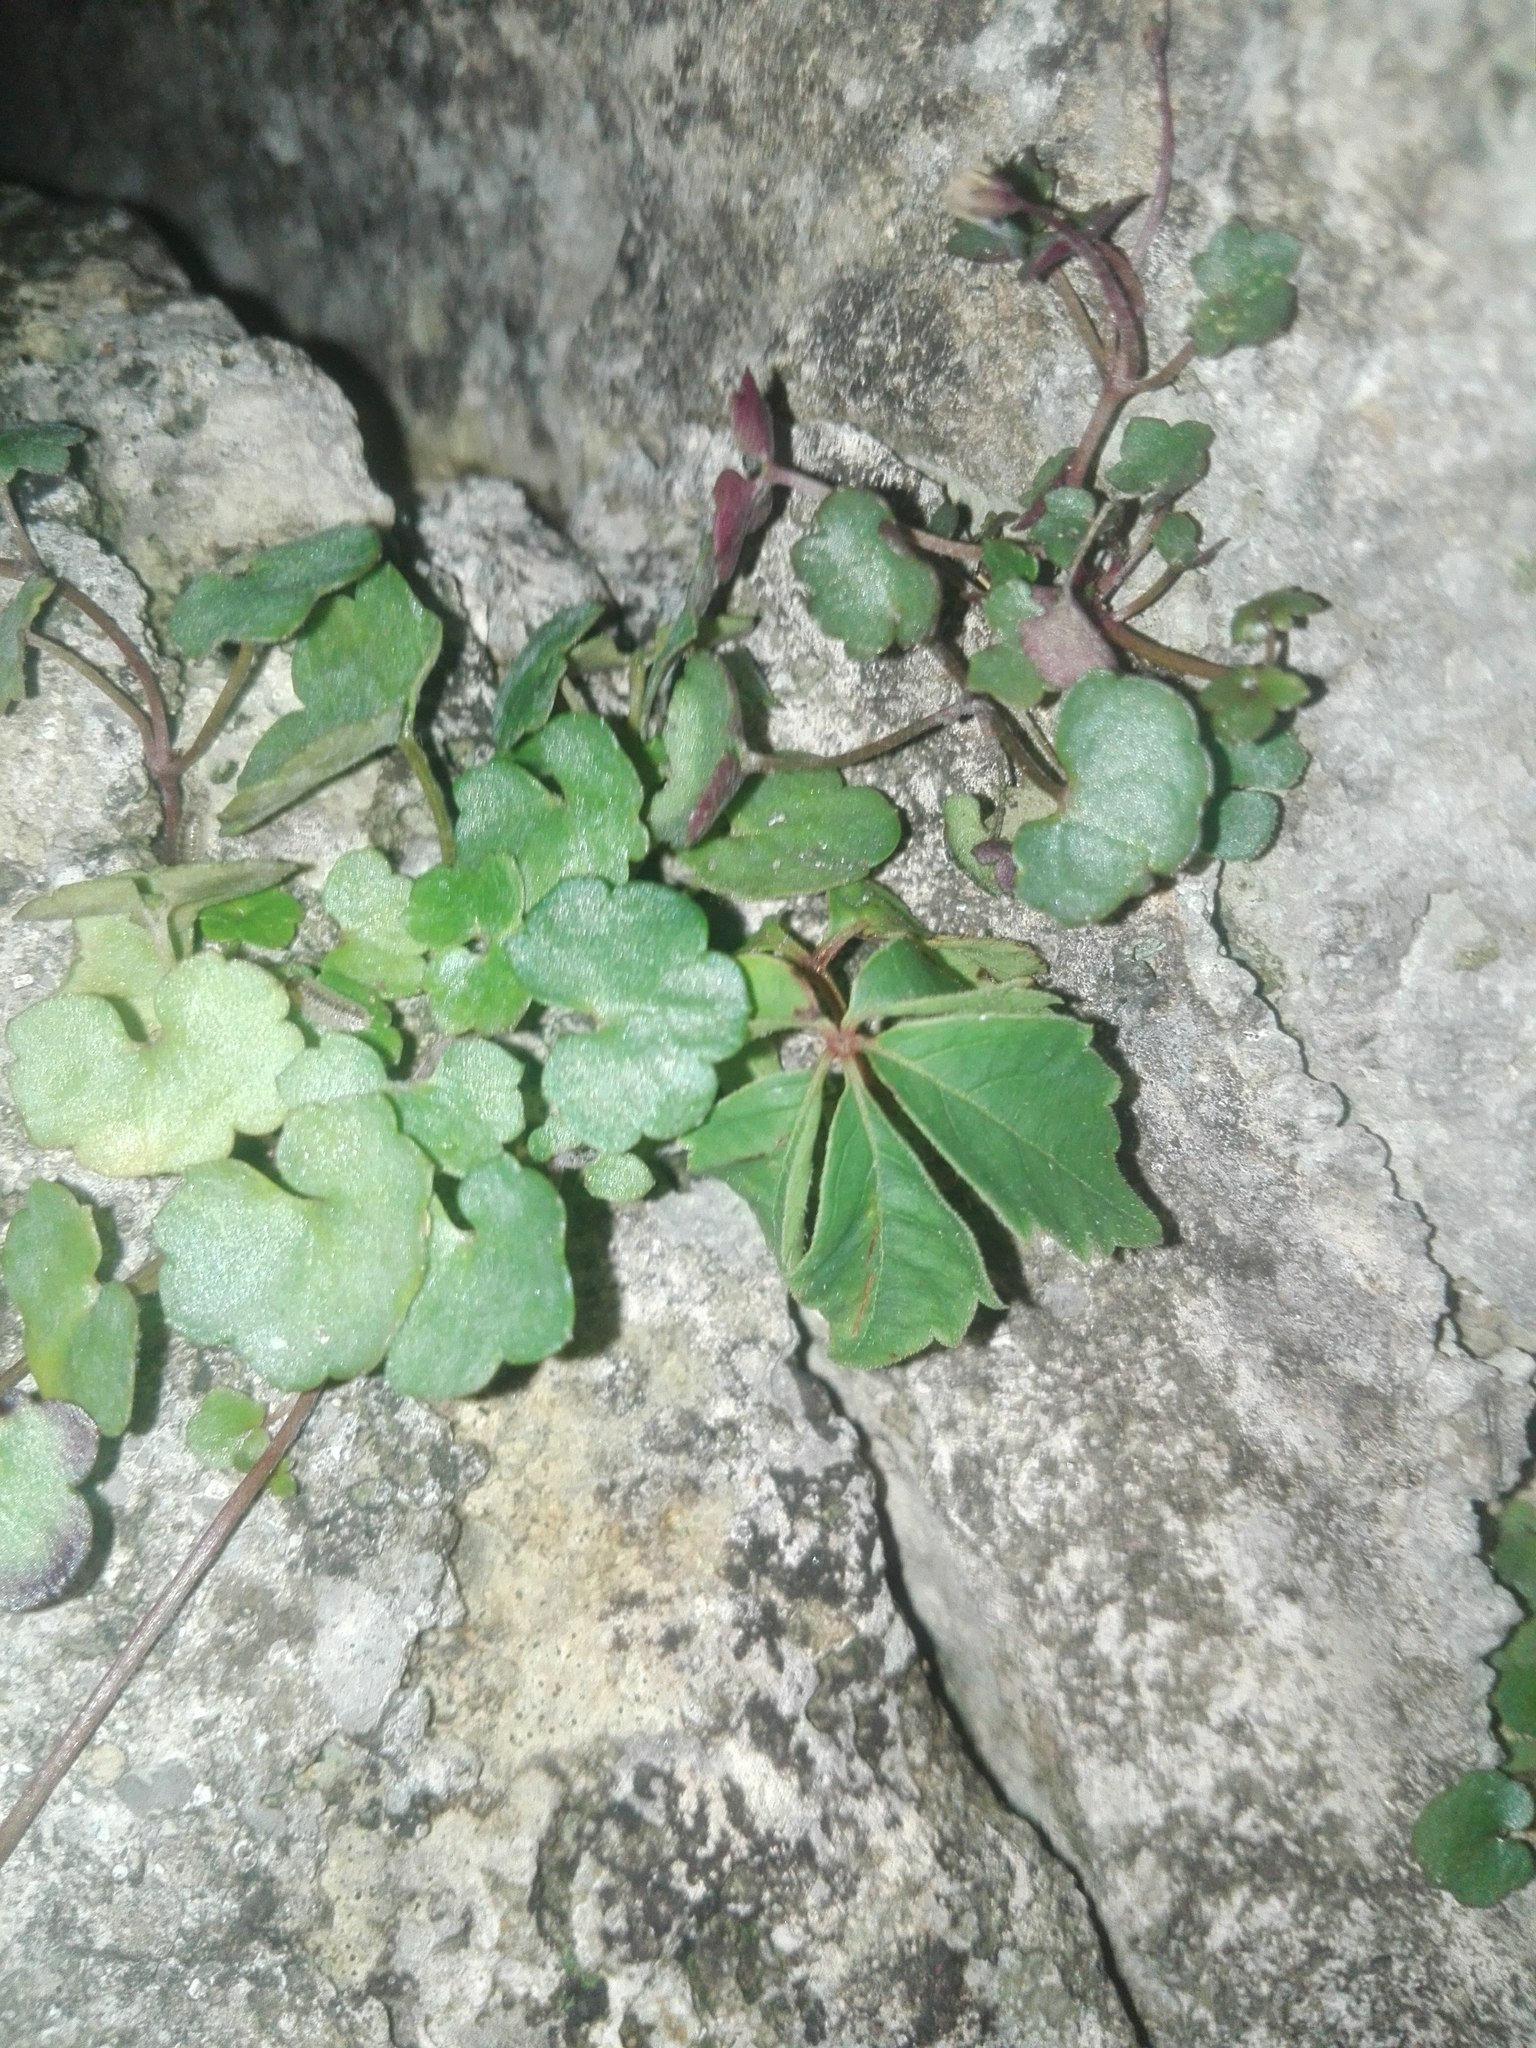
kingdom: Plantae
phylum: Tracheophyta
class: Magnoliopsida
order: Vitales
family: Vitaceae
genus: Parthenocissus
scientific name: Parthenocissus inserta
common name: False virginia-creeper
